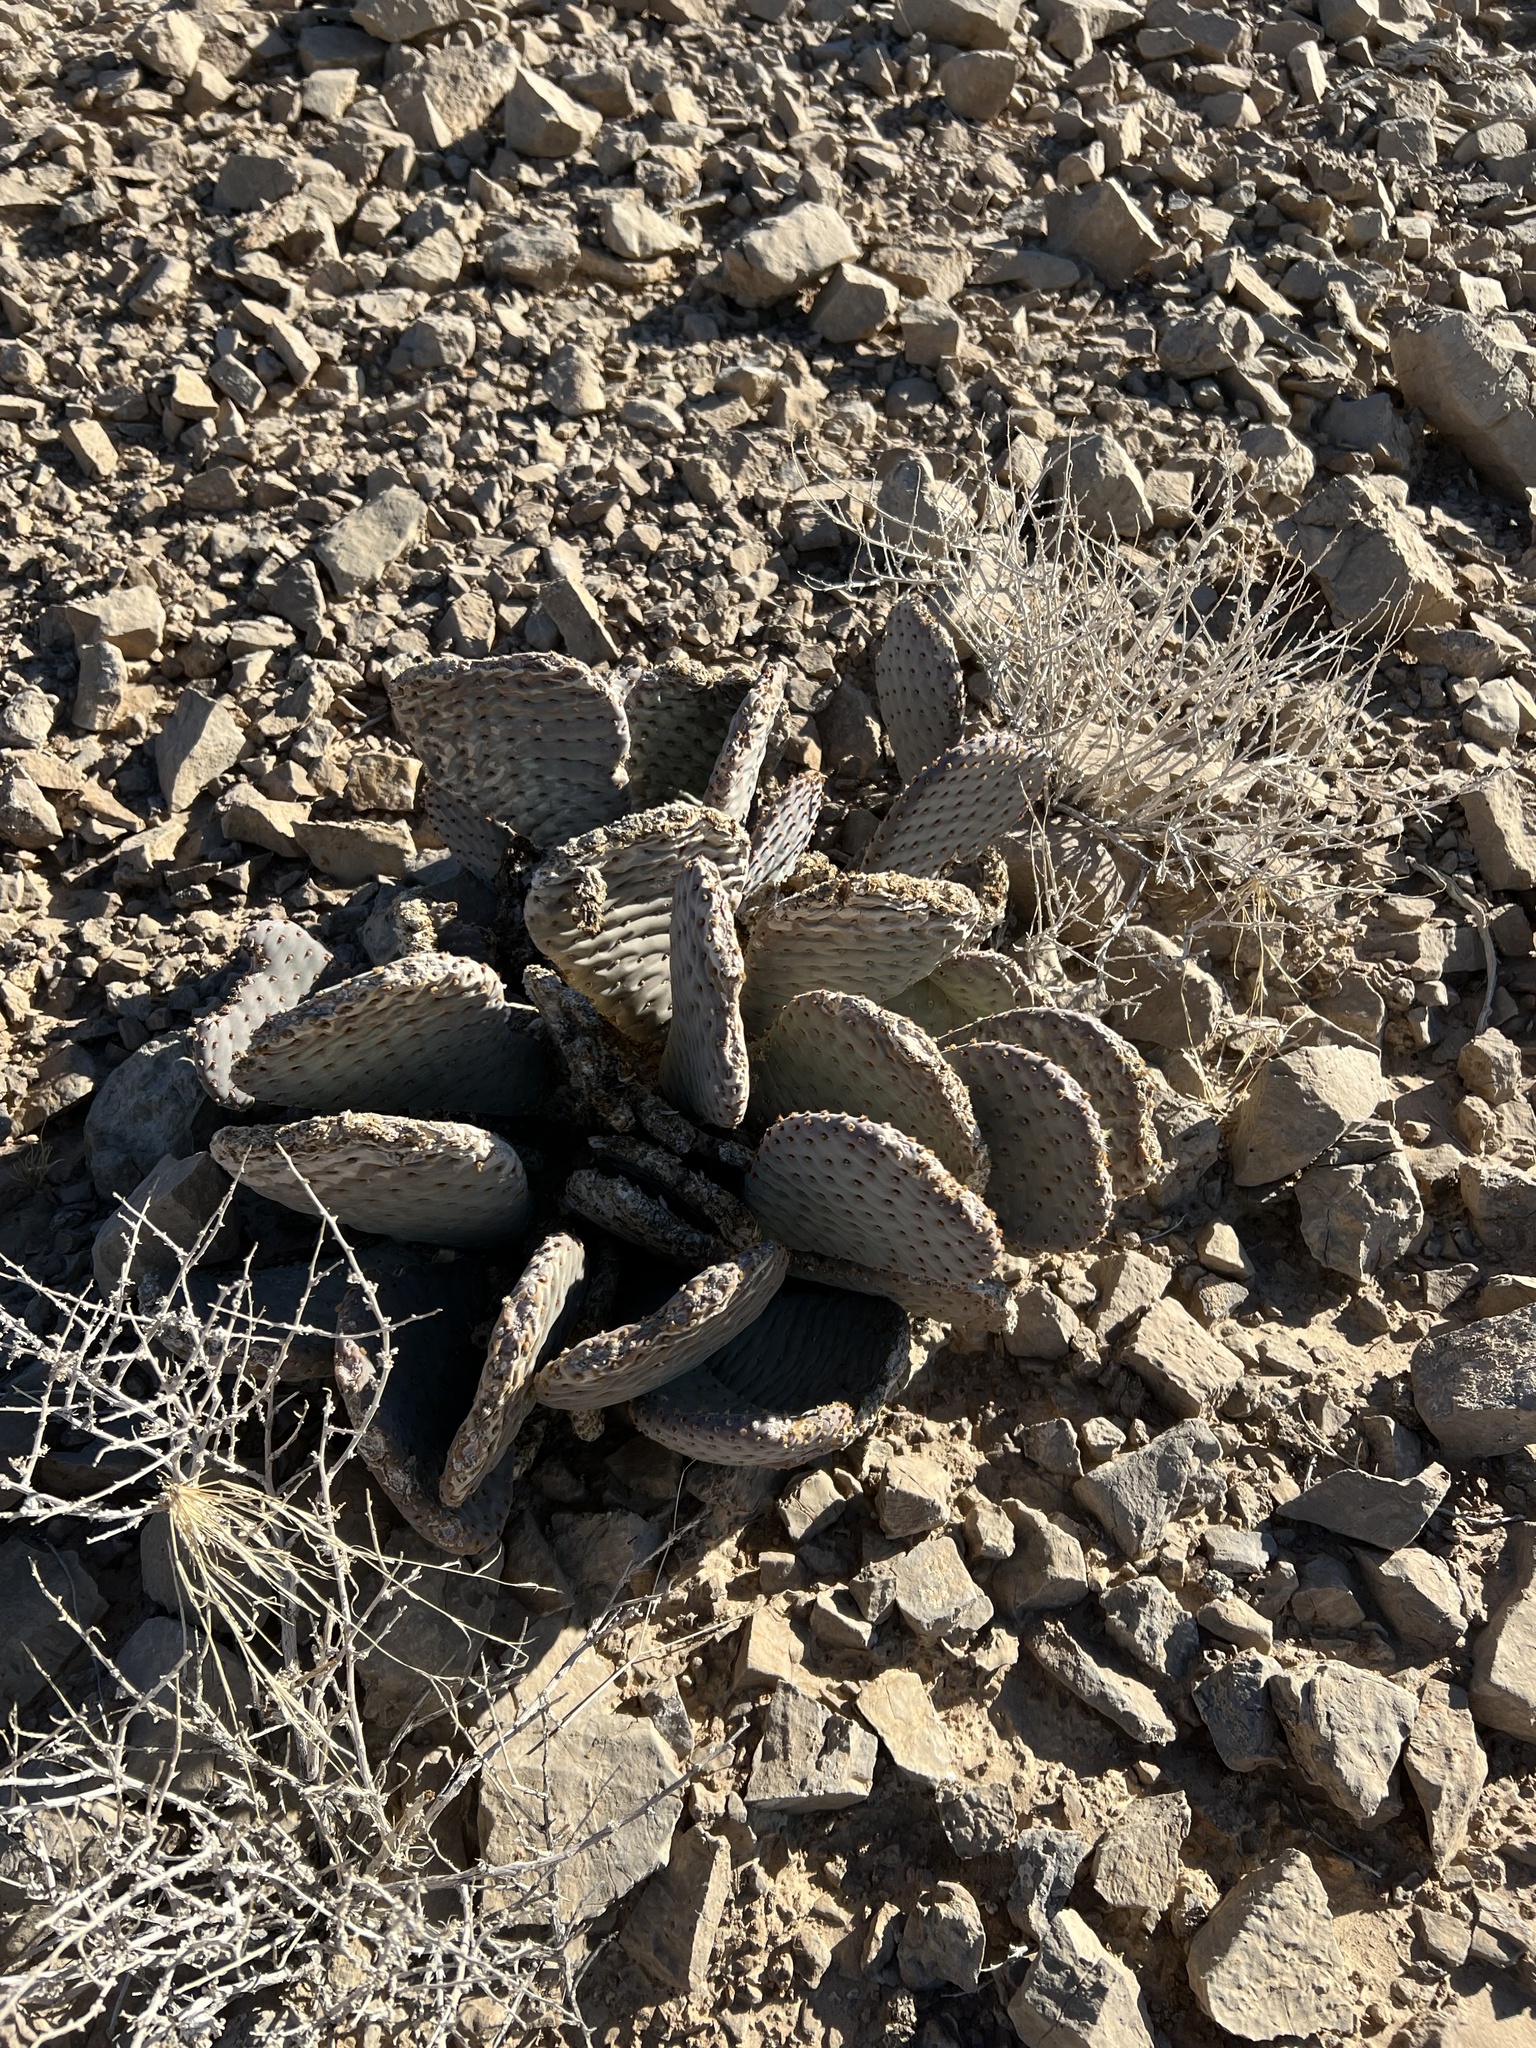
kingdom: Plantae
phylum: Tracheophyta
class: Magnoliopsida
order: Caryophyllales
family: Cactaceae
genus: Opuntia
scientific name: Opuntia basilaris
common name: Beavertail prickly-pear
